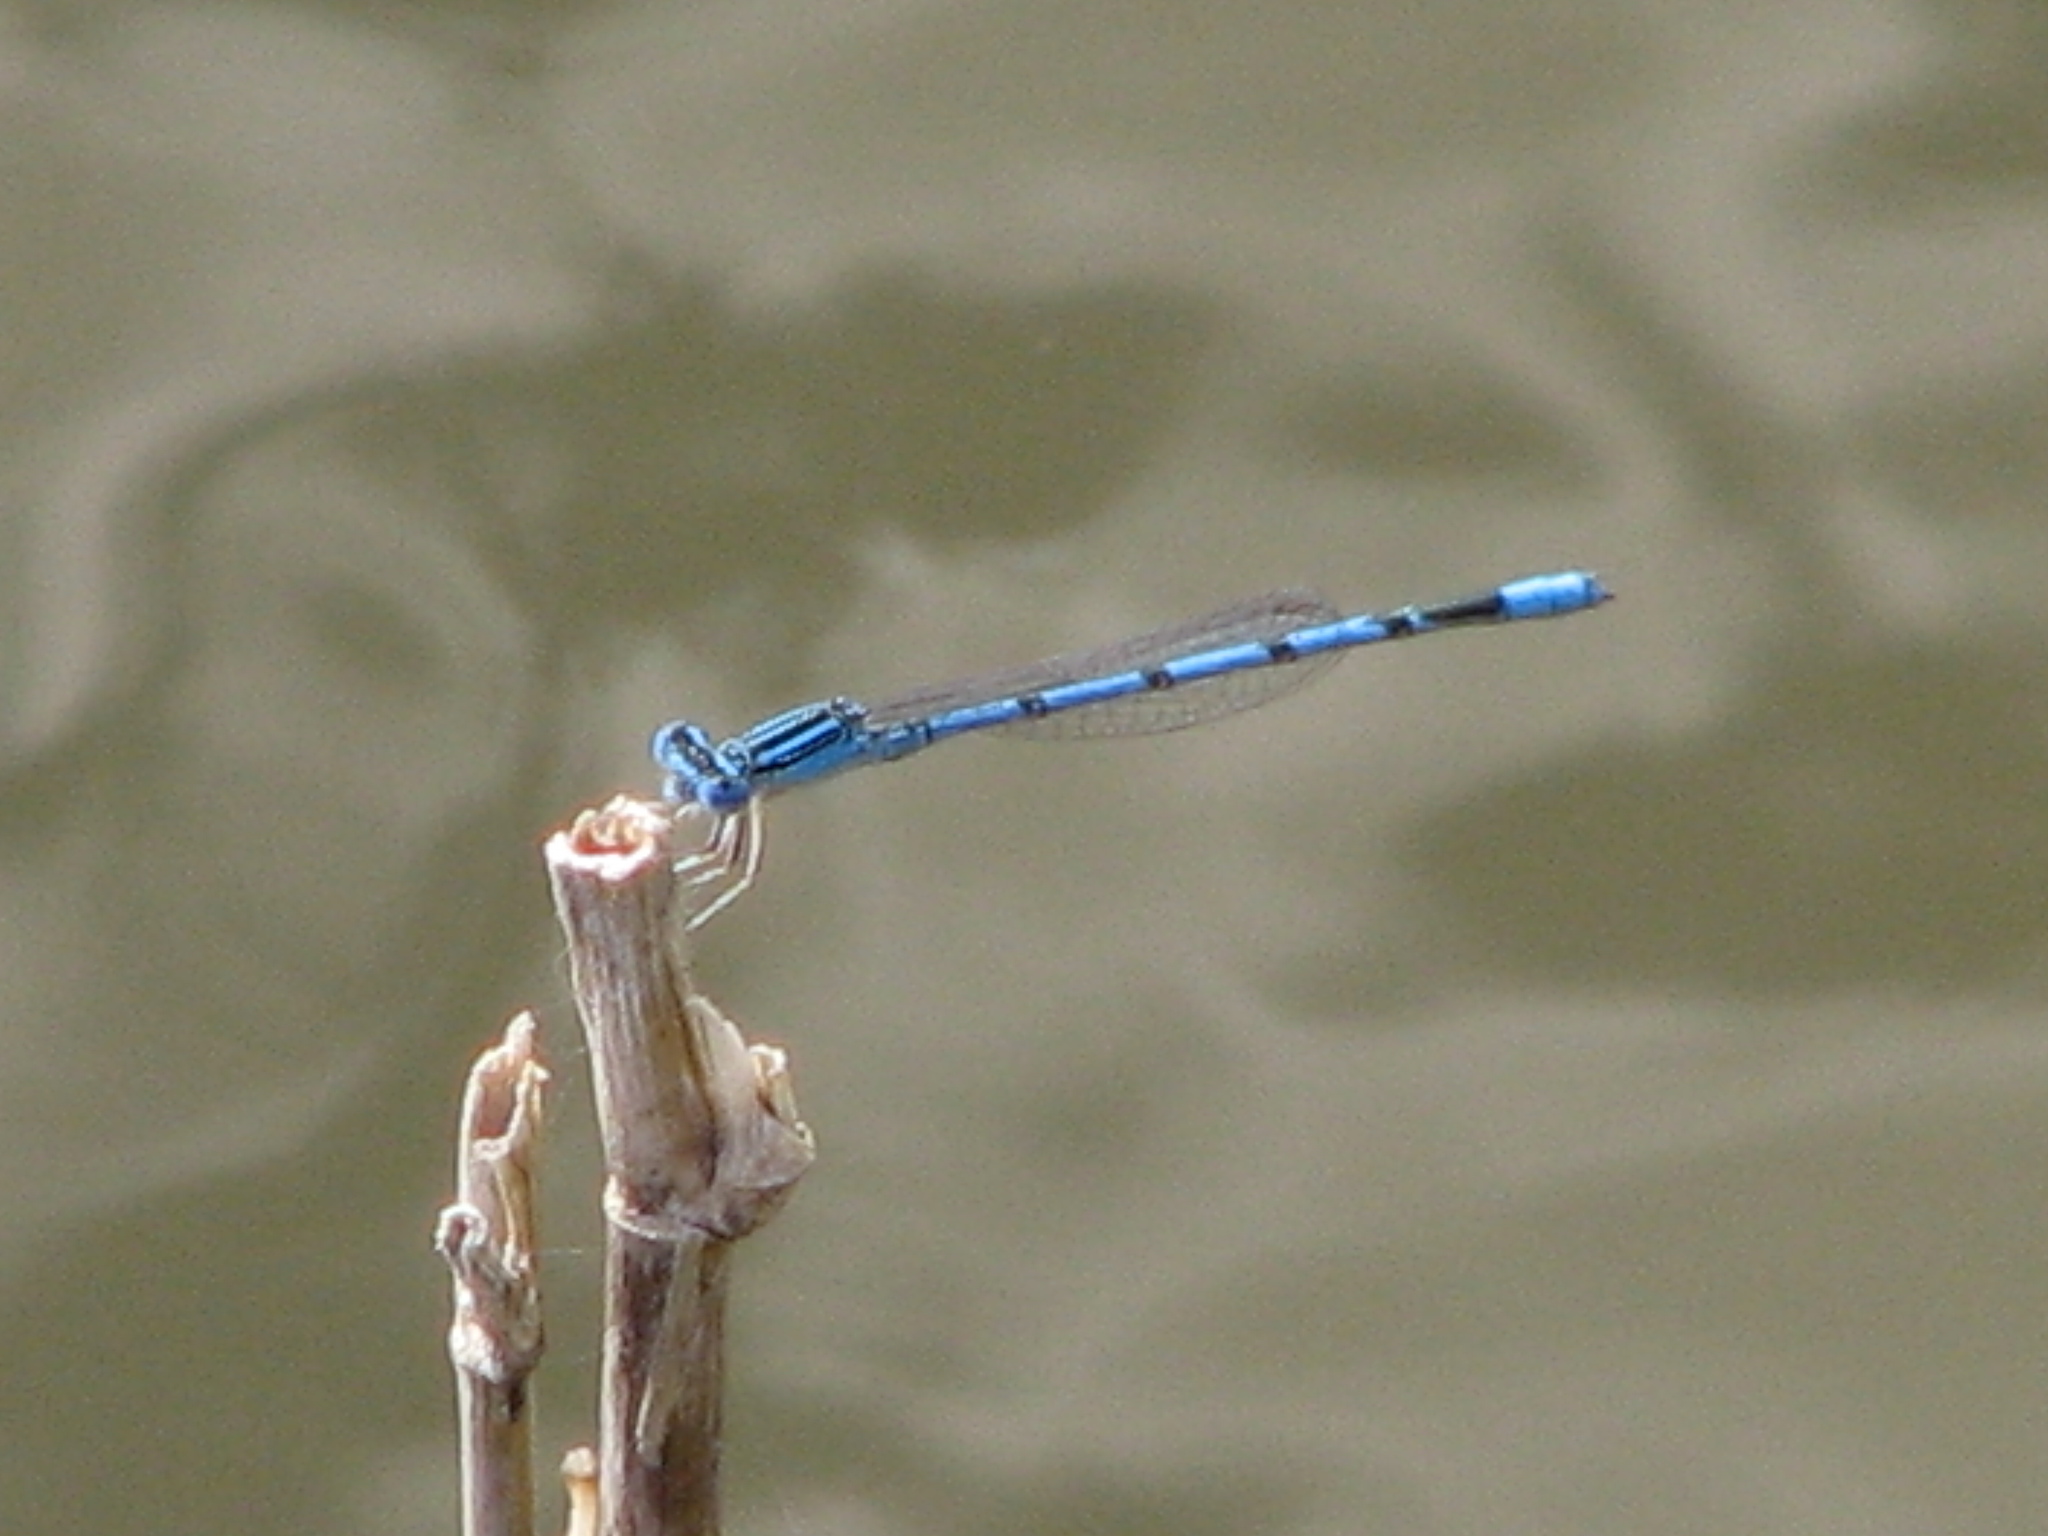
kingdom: Animalia
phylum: Arthropoda
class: Insecta
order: Odonata
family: Coenagrionidae
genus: Enallagma
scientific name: Enallagma basidens
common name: Double-striped bluet
